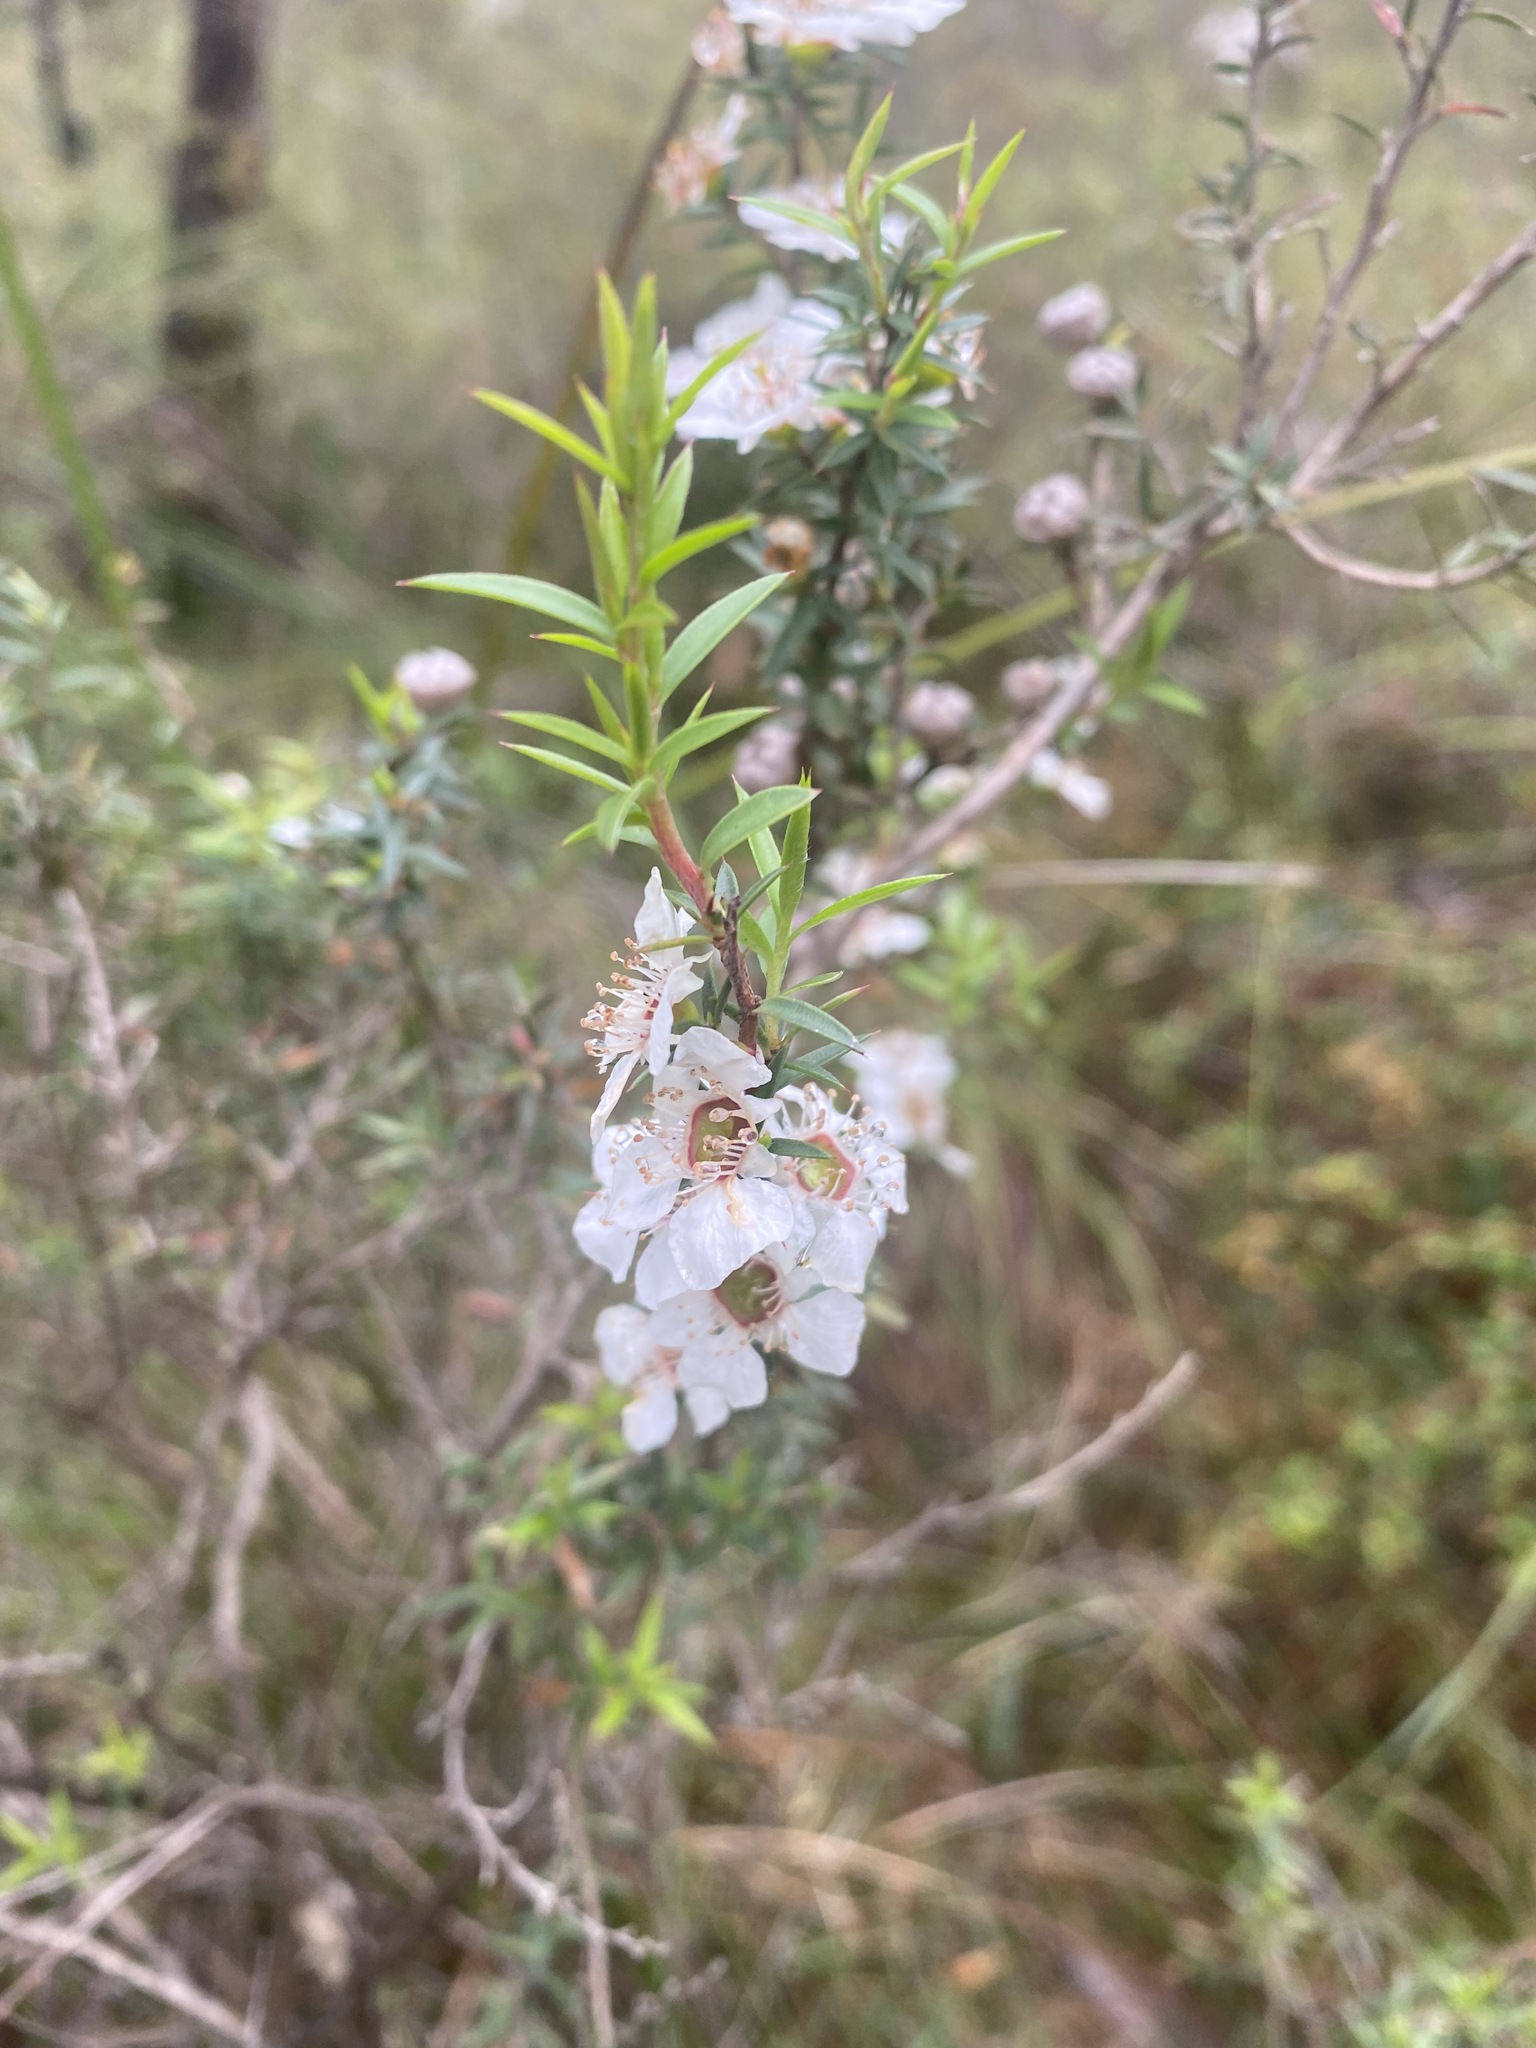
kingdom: Plantae
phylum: Tracheophyta
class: Magnoliopsida
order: Myrtales
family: Myrtaceae
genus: Leptospermum
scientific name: Leptospermum continentale
